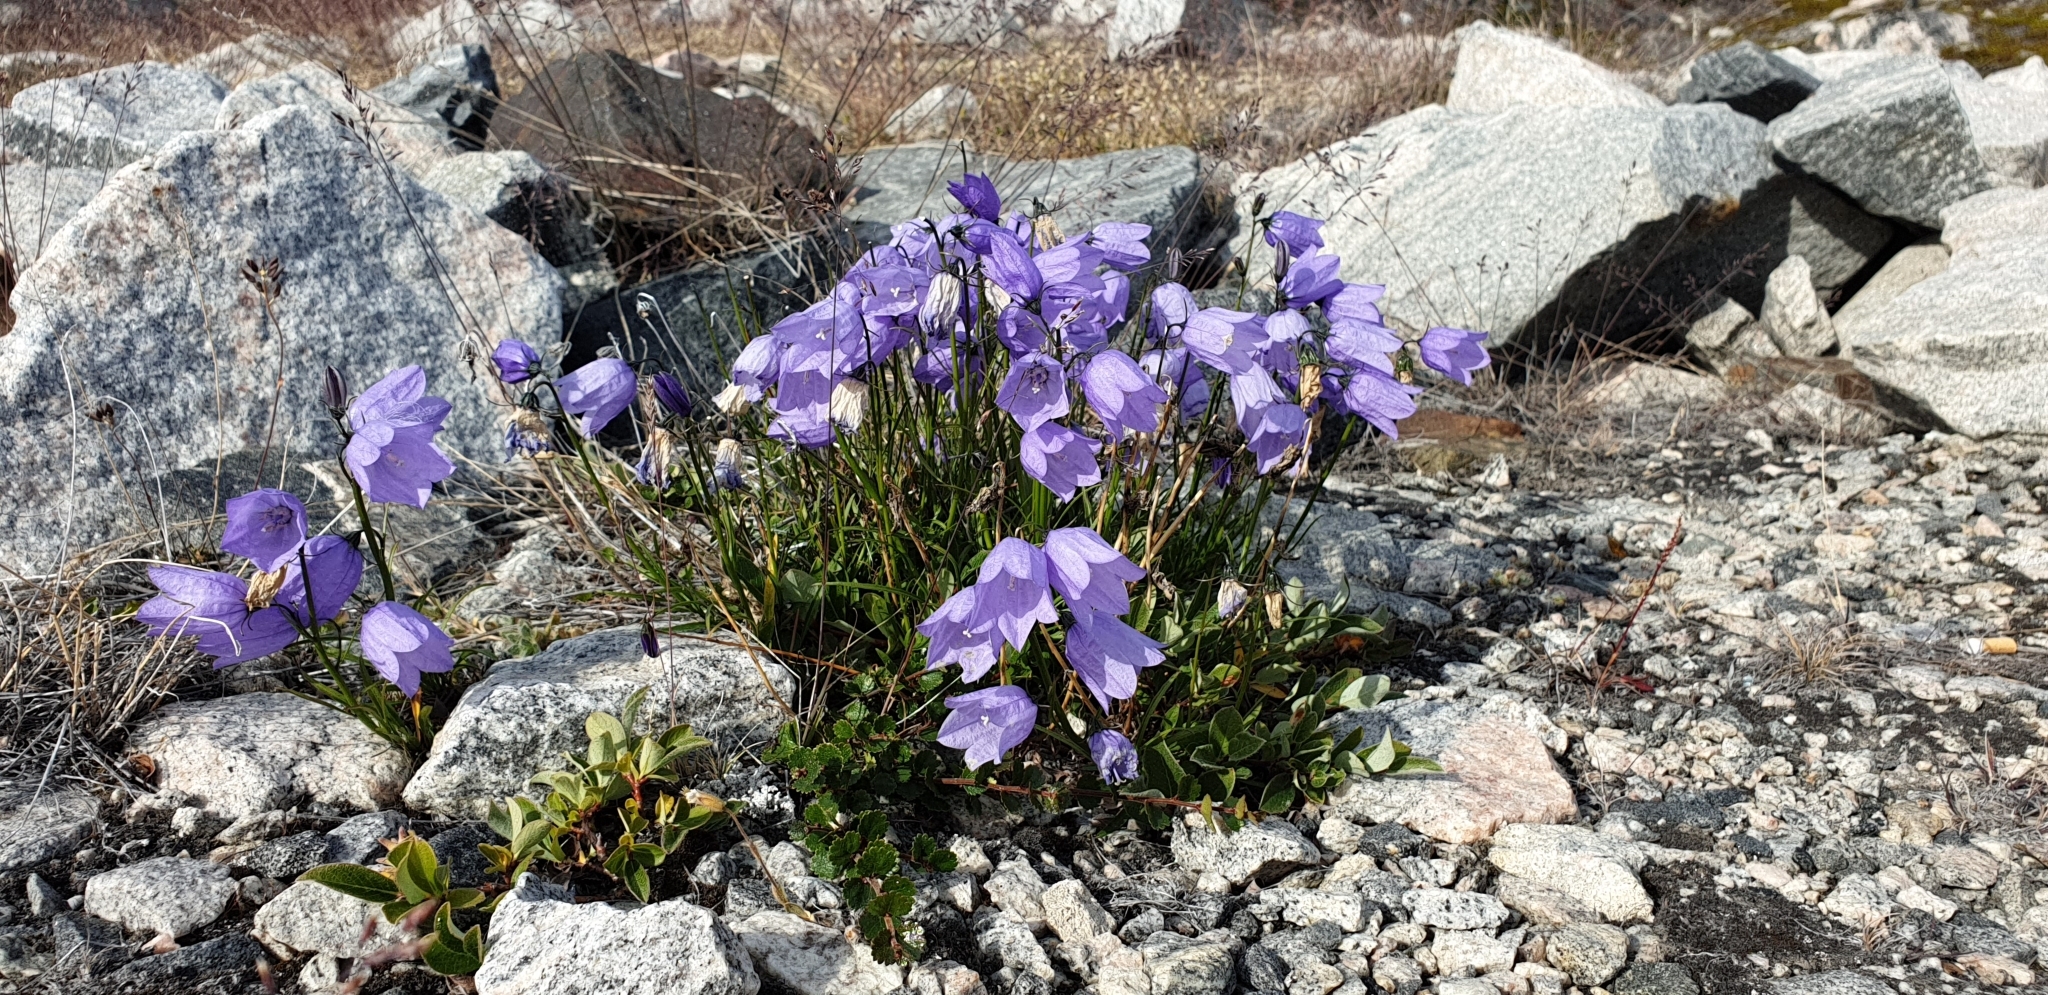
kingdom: Plantae
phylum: Tracheophyta
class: Magnoliopsida
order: Asterales
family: Campanulaceae
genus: Campanula
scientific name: Campanula giesekiana
